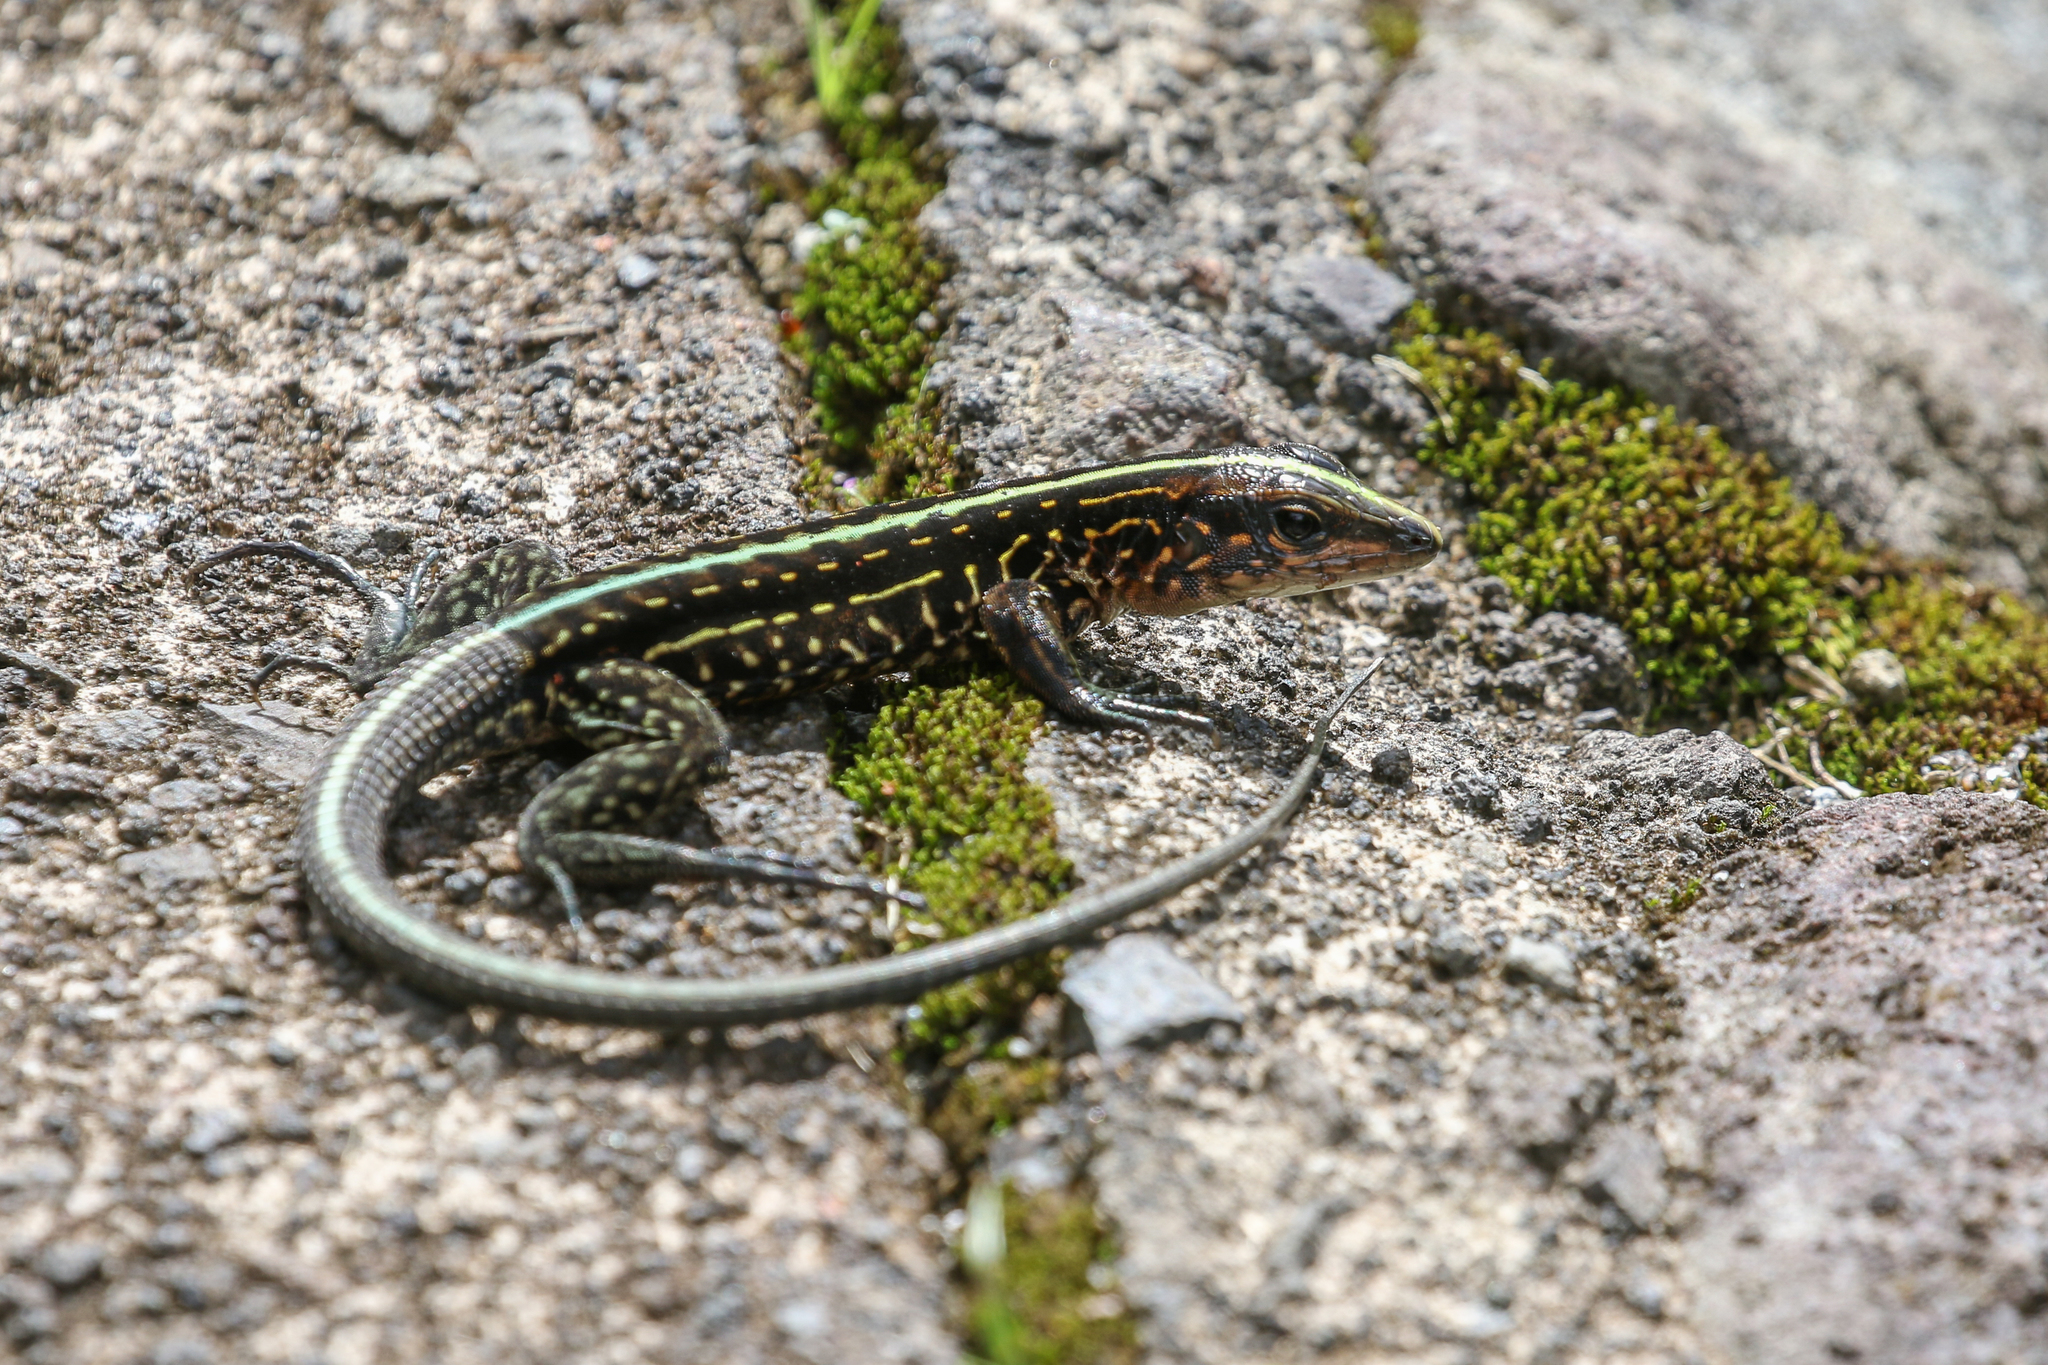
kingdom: Animalia
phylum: Chordata
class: Squamata
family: Teiidae
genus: Holcosus
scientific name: Holcosus festivus
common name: Middle american ameiva
